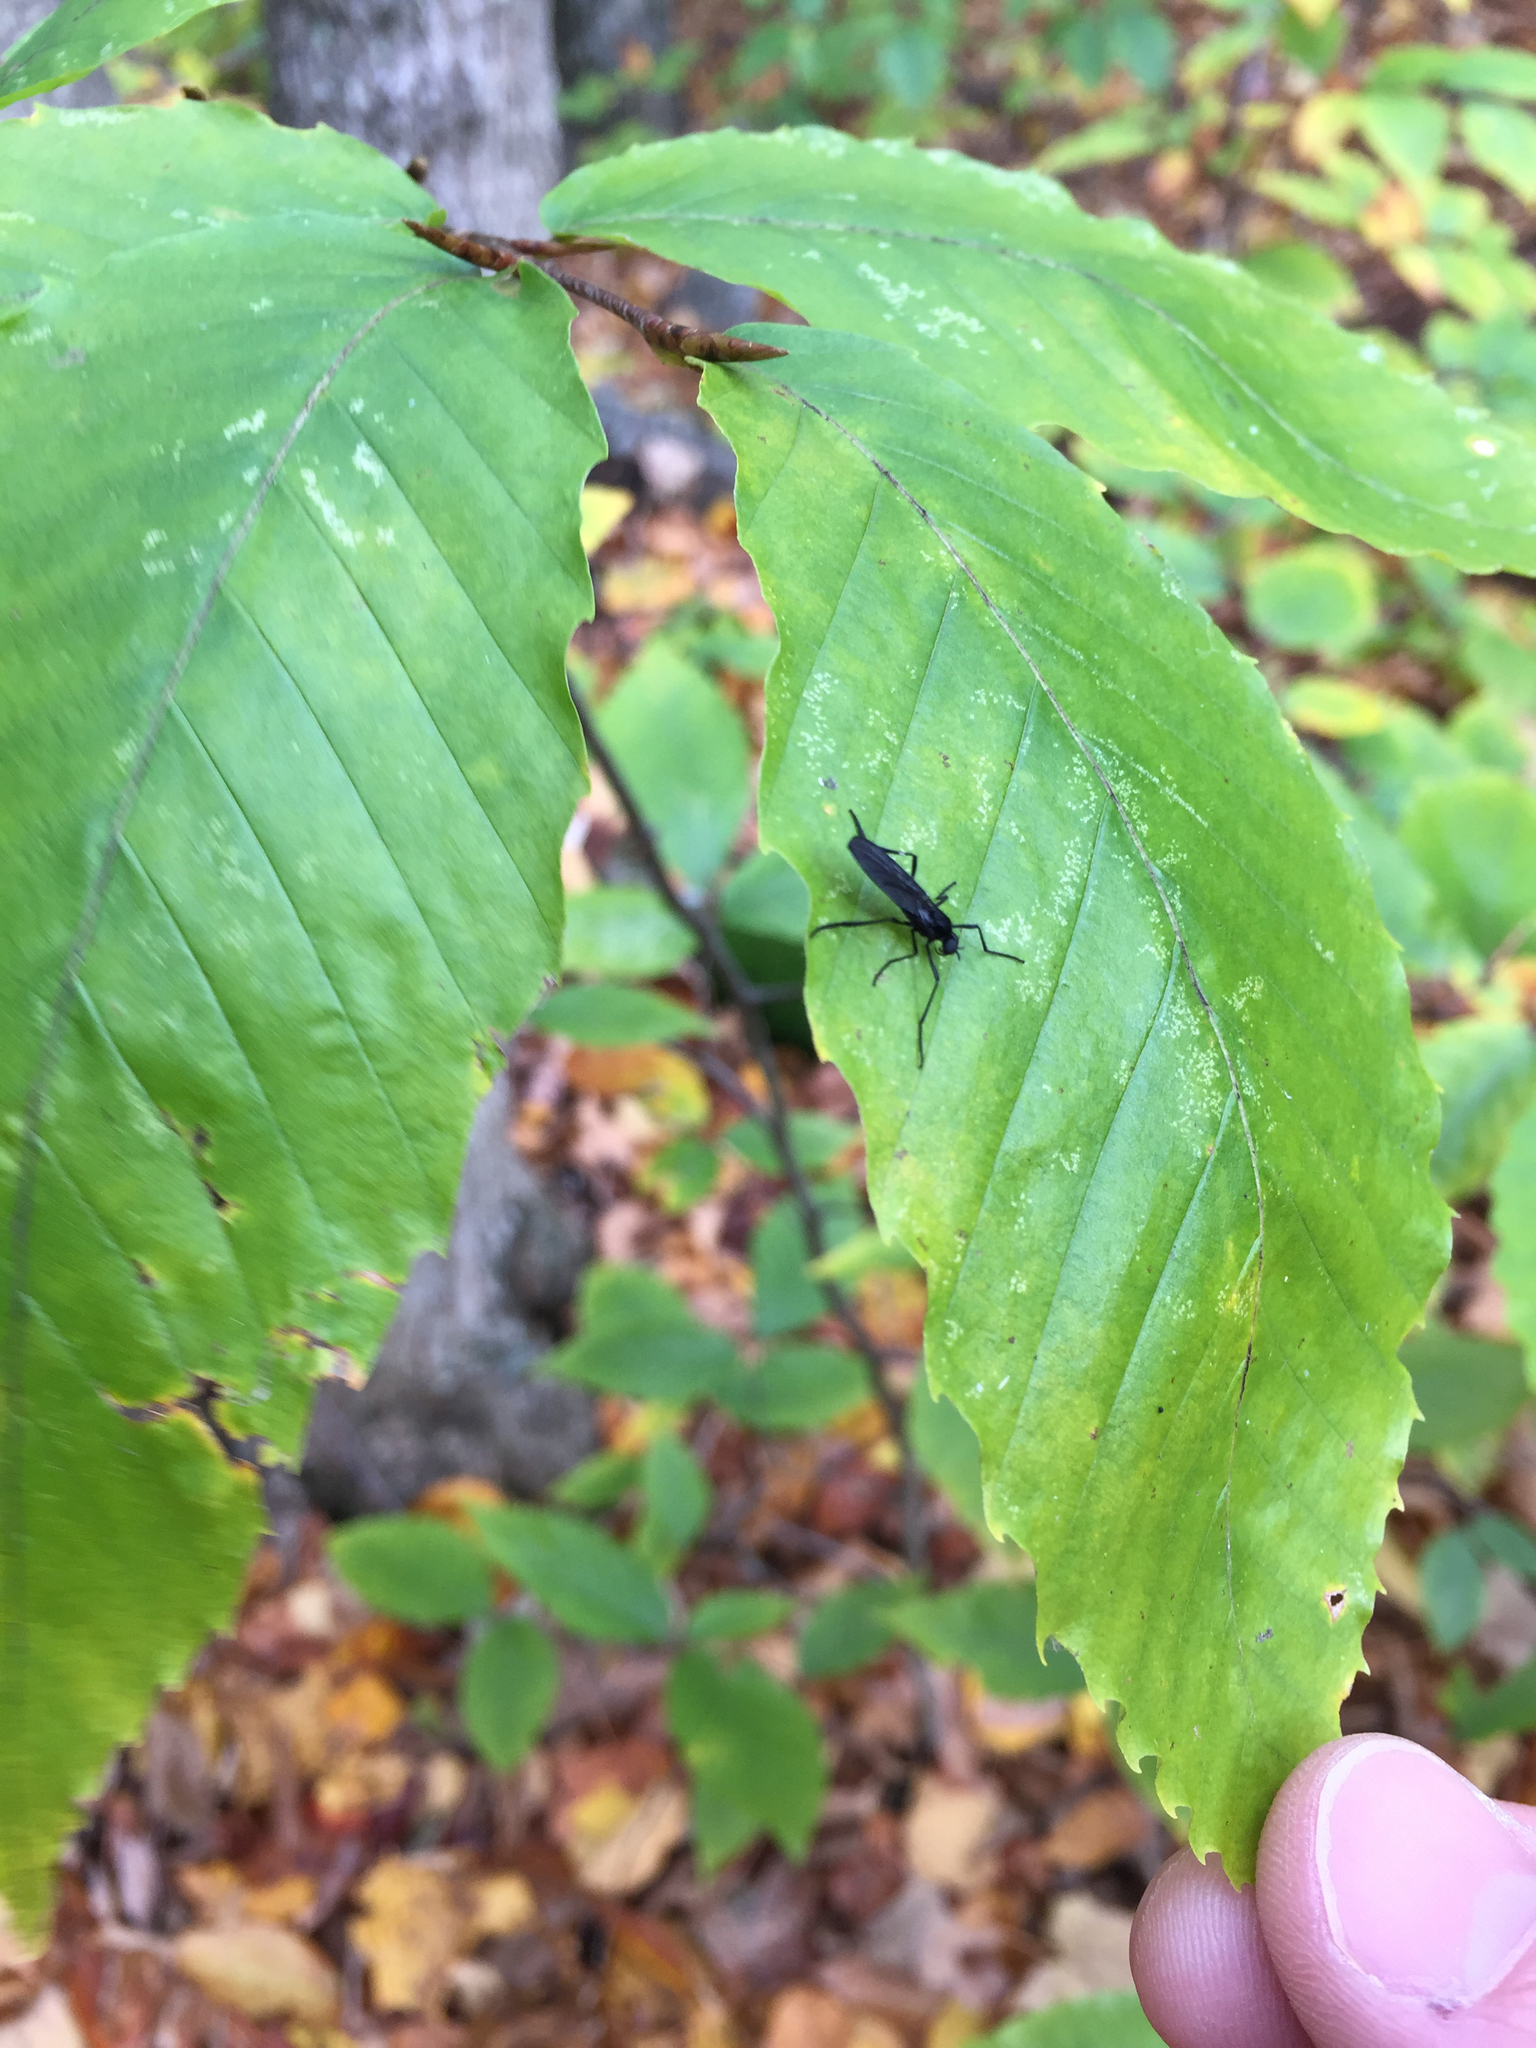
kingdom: Animalia
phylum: Arthropoda
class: Insecta
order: Diptera
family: Bibionidae
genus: Penthetria
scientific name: Penthetria heteroptera
